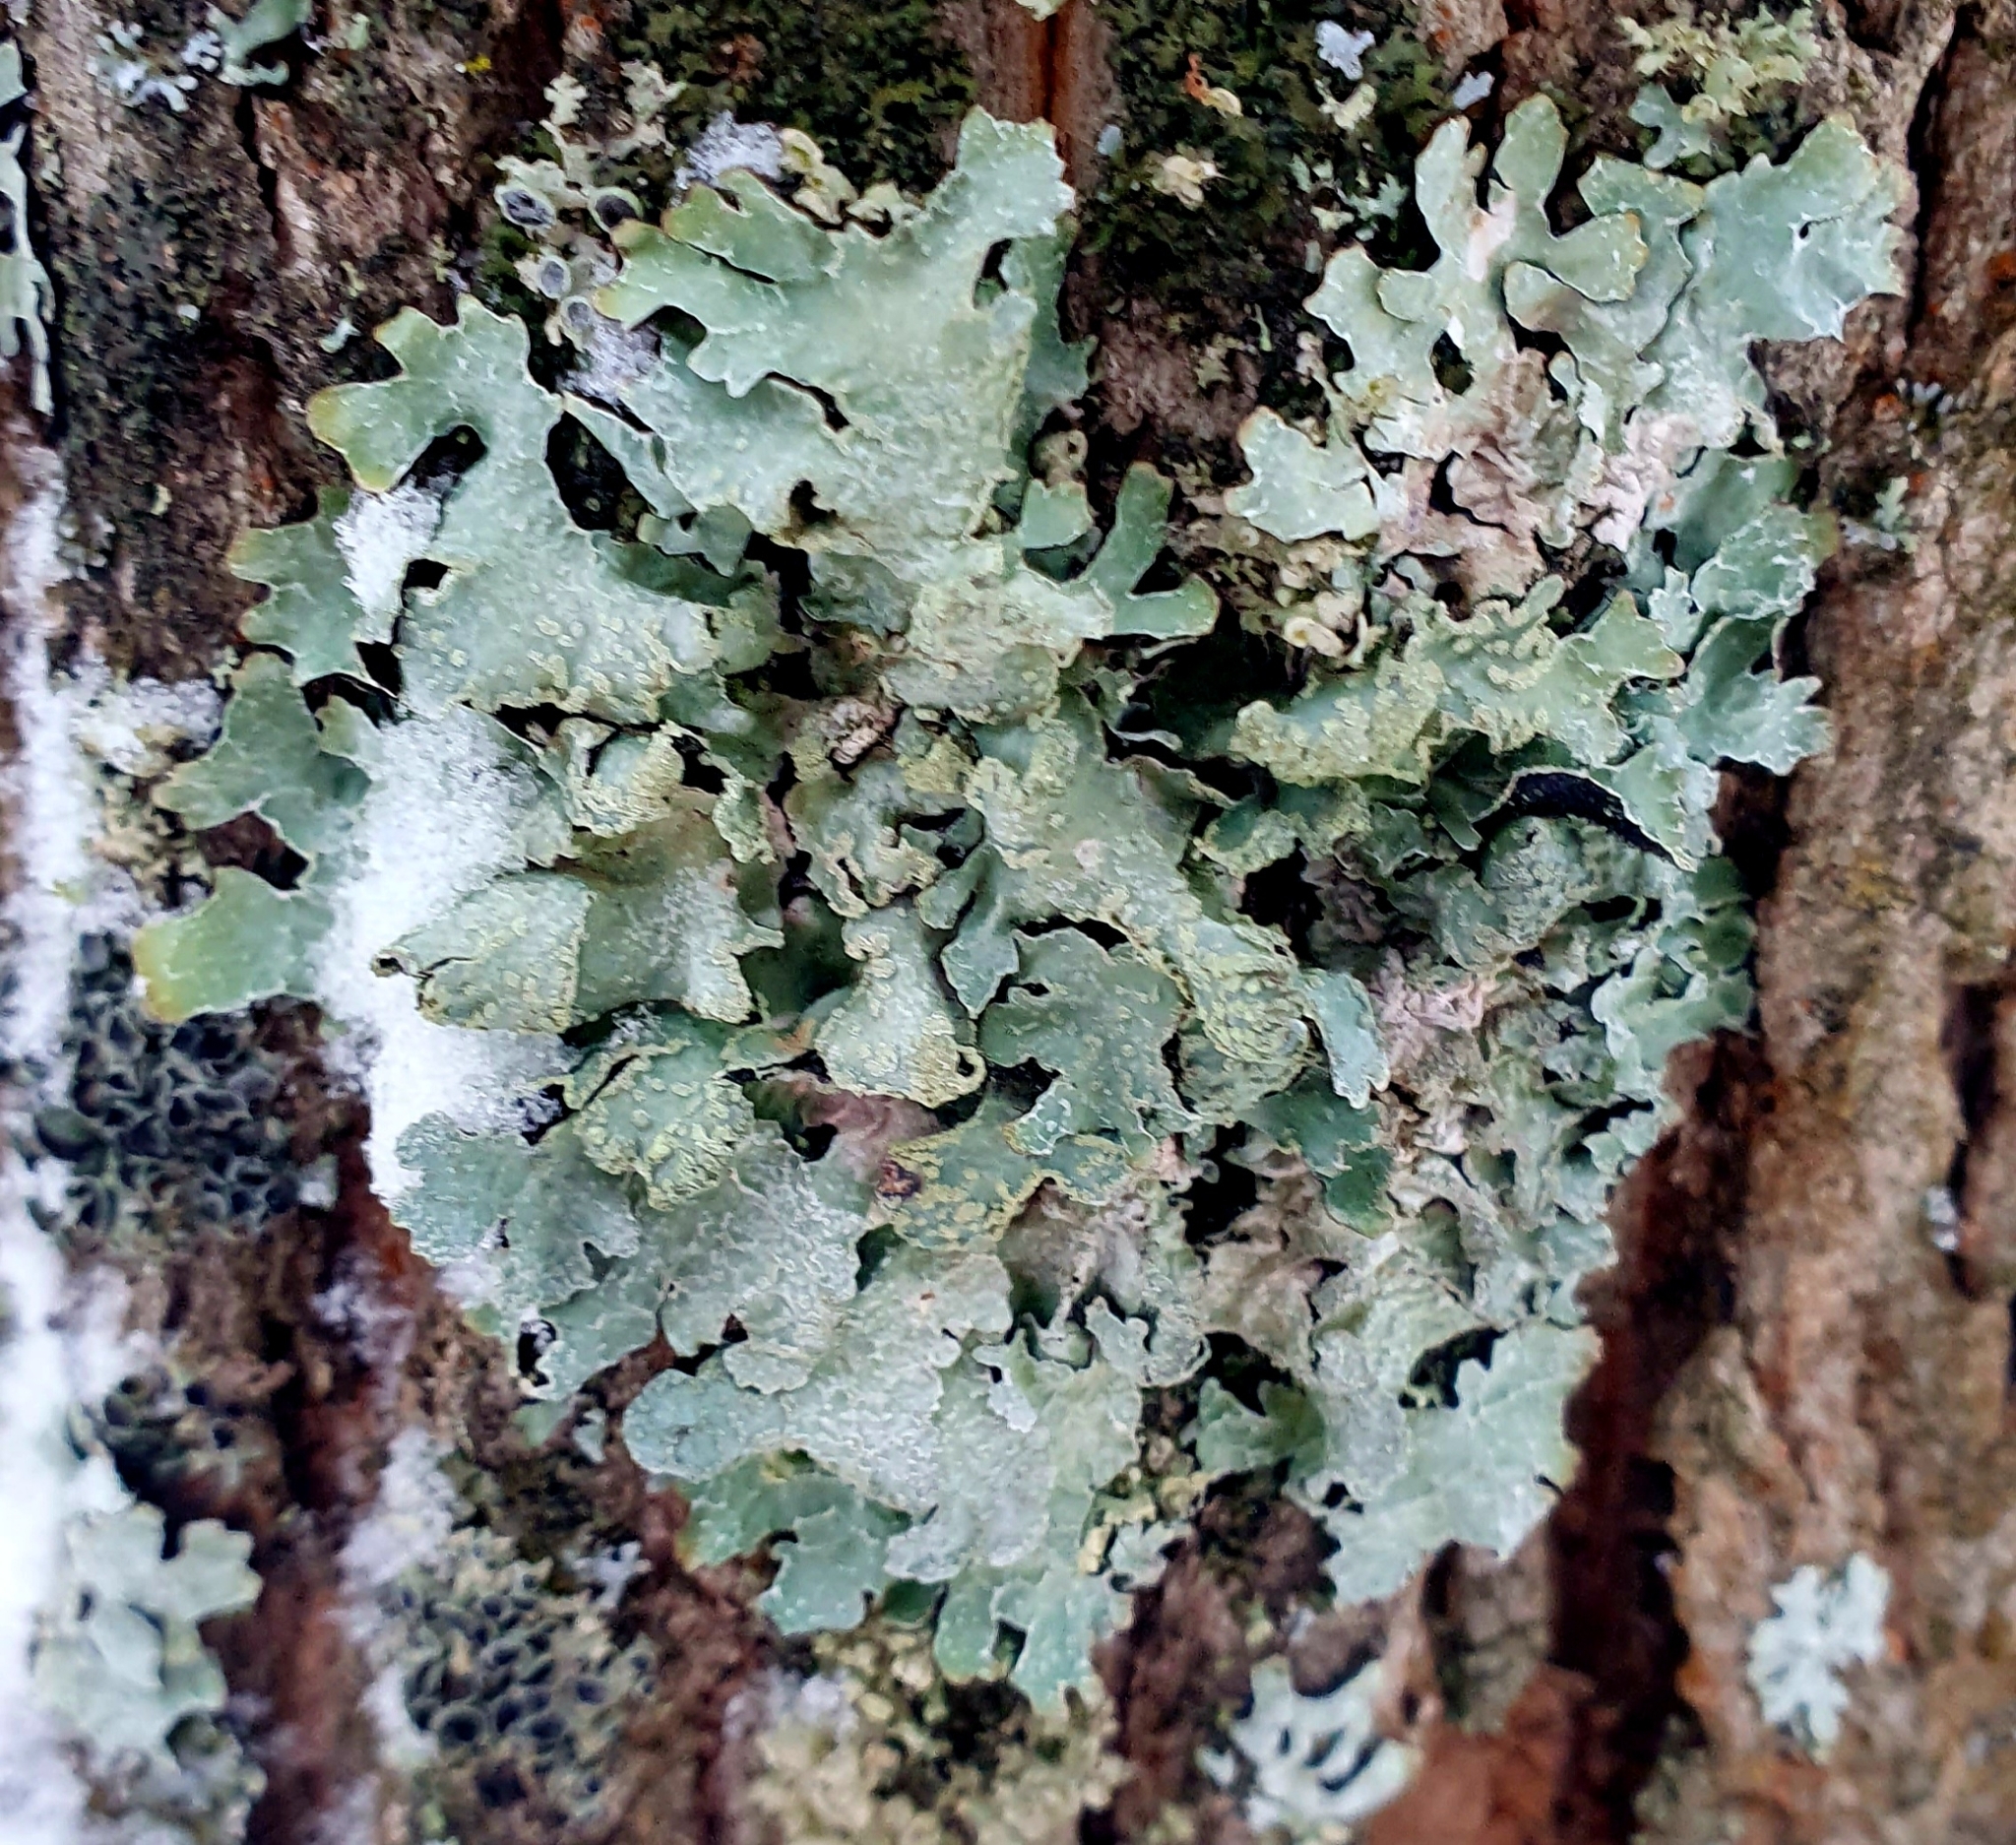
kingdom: Fungi
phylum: Ascomycota
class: Lecanoromycetes
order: Lecanorales
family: Parmeliaceae
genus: Parmelia
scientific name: Parmelia sulcata
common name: Netted shield lichen
